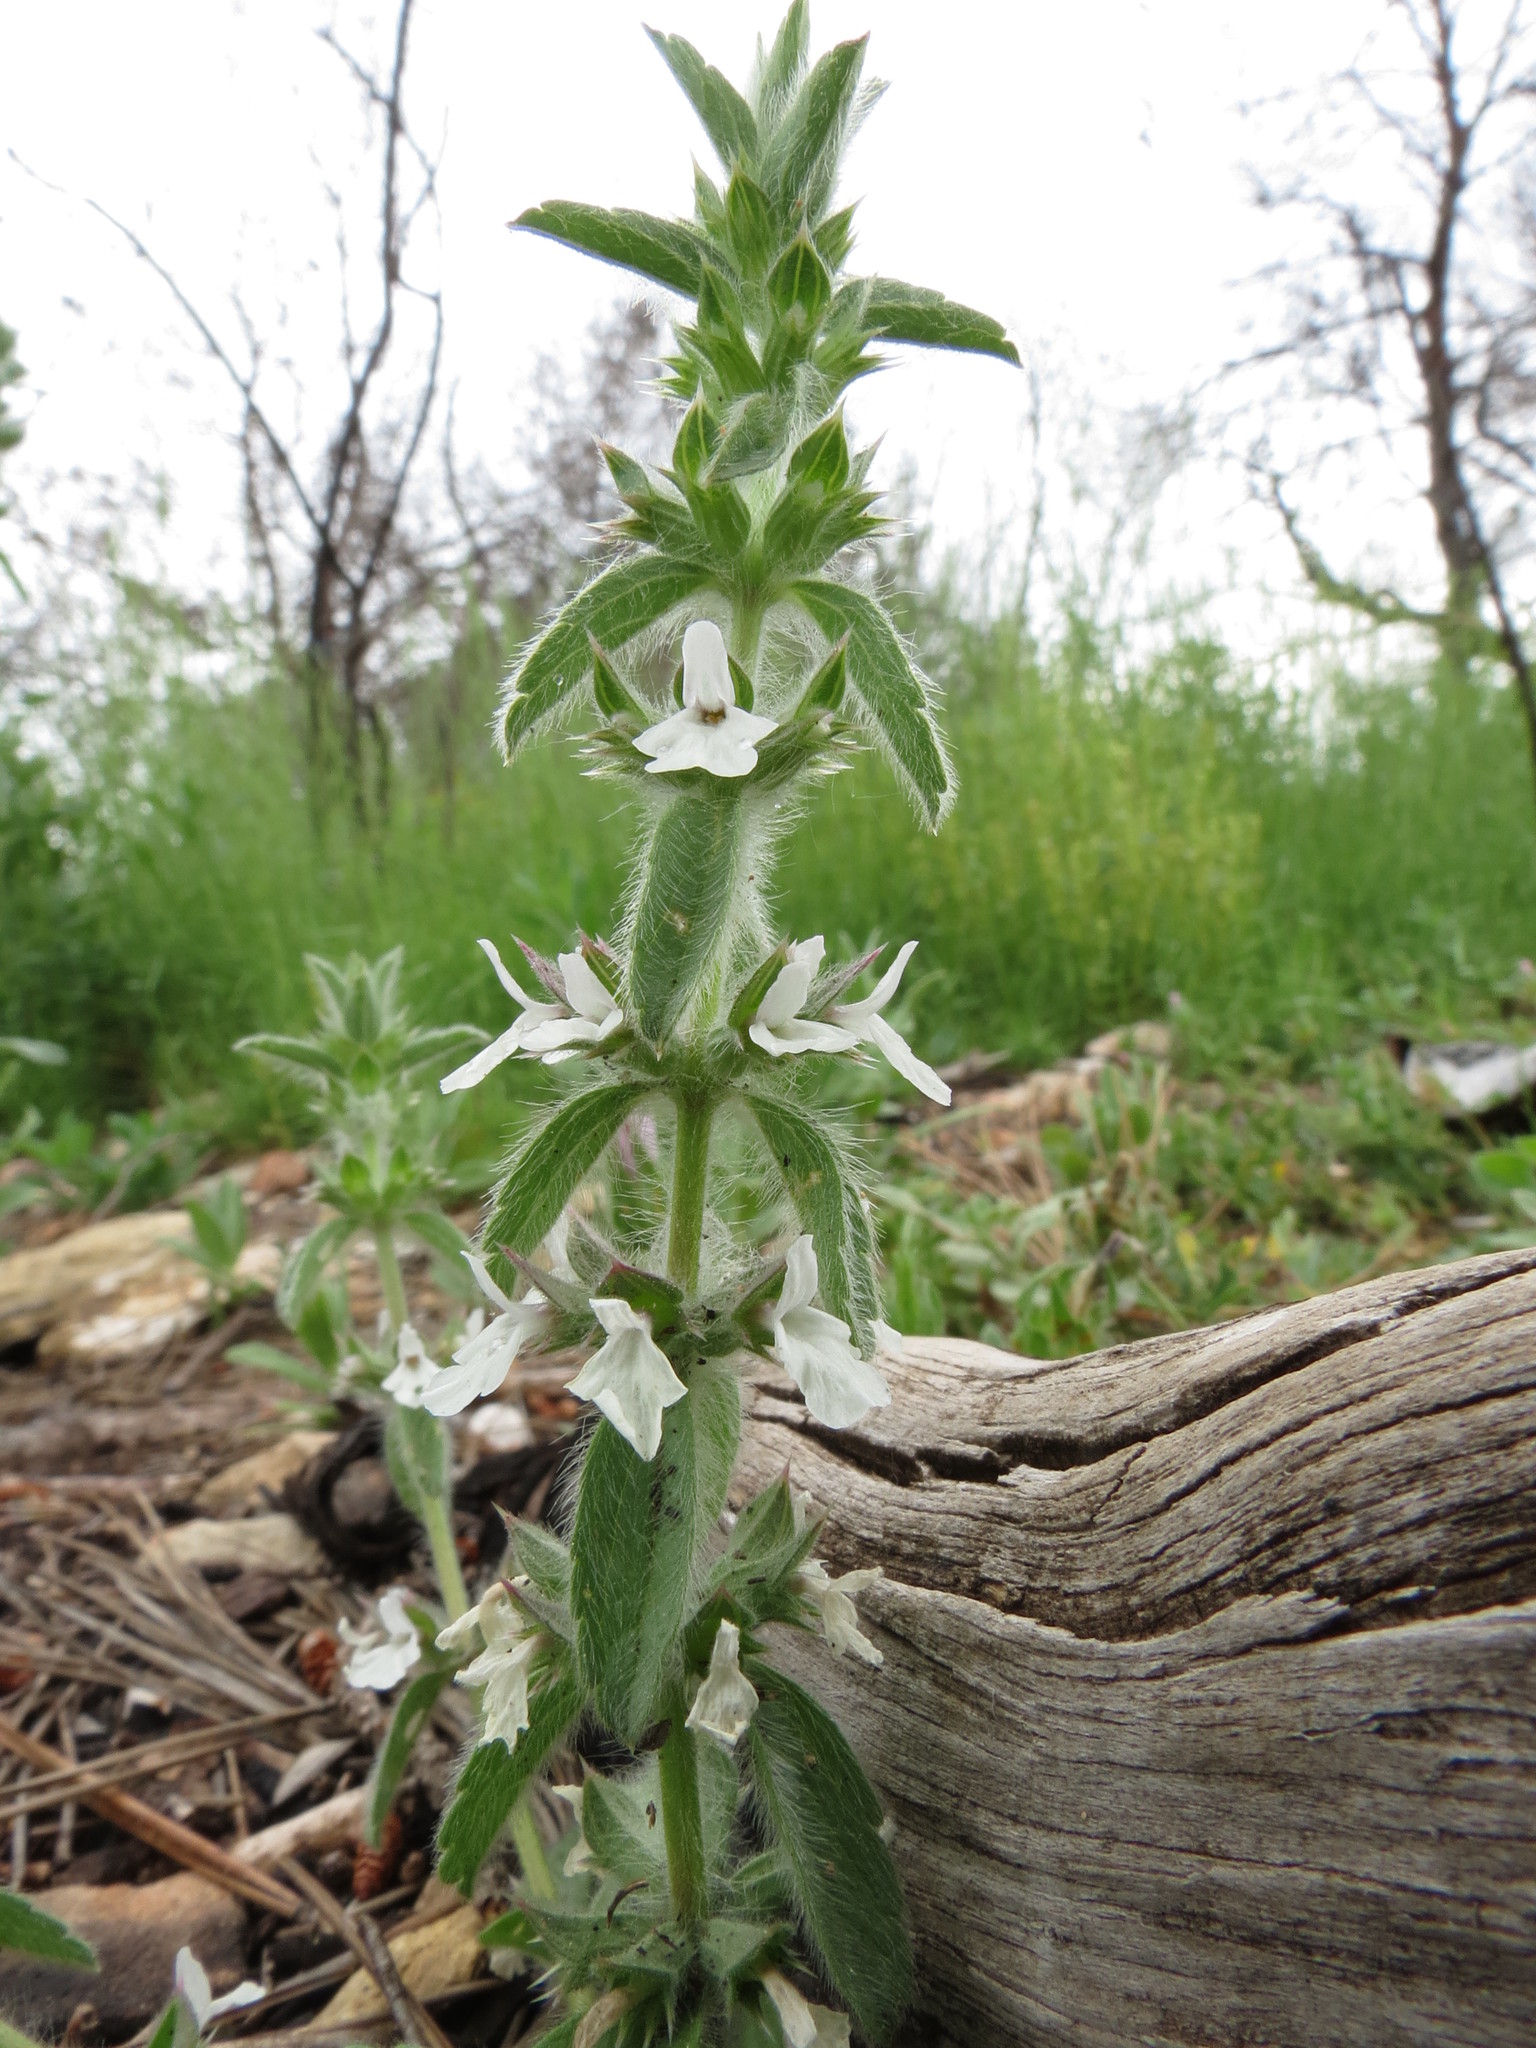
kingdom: Plantae
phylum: Tracheophyta
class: Magnoliopsida
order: Lamiales
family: Lamiaceae
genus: Sideritis
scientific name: Sideritis romana
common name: Simplebeak ironwort
